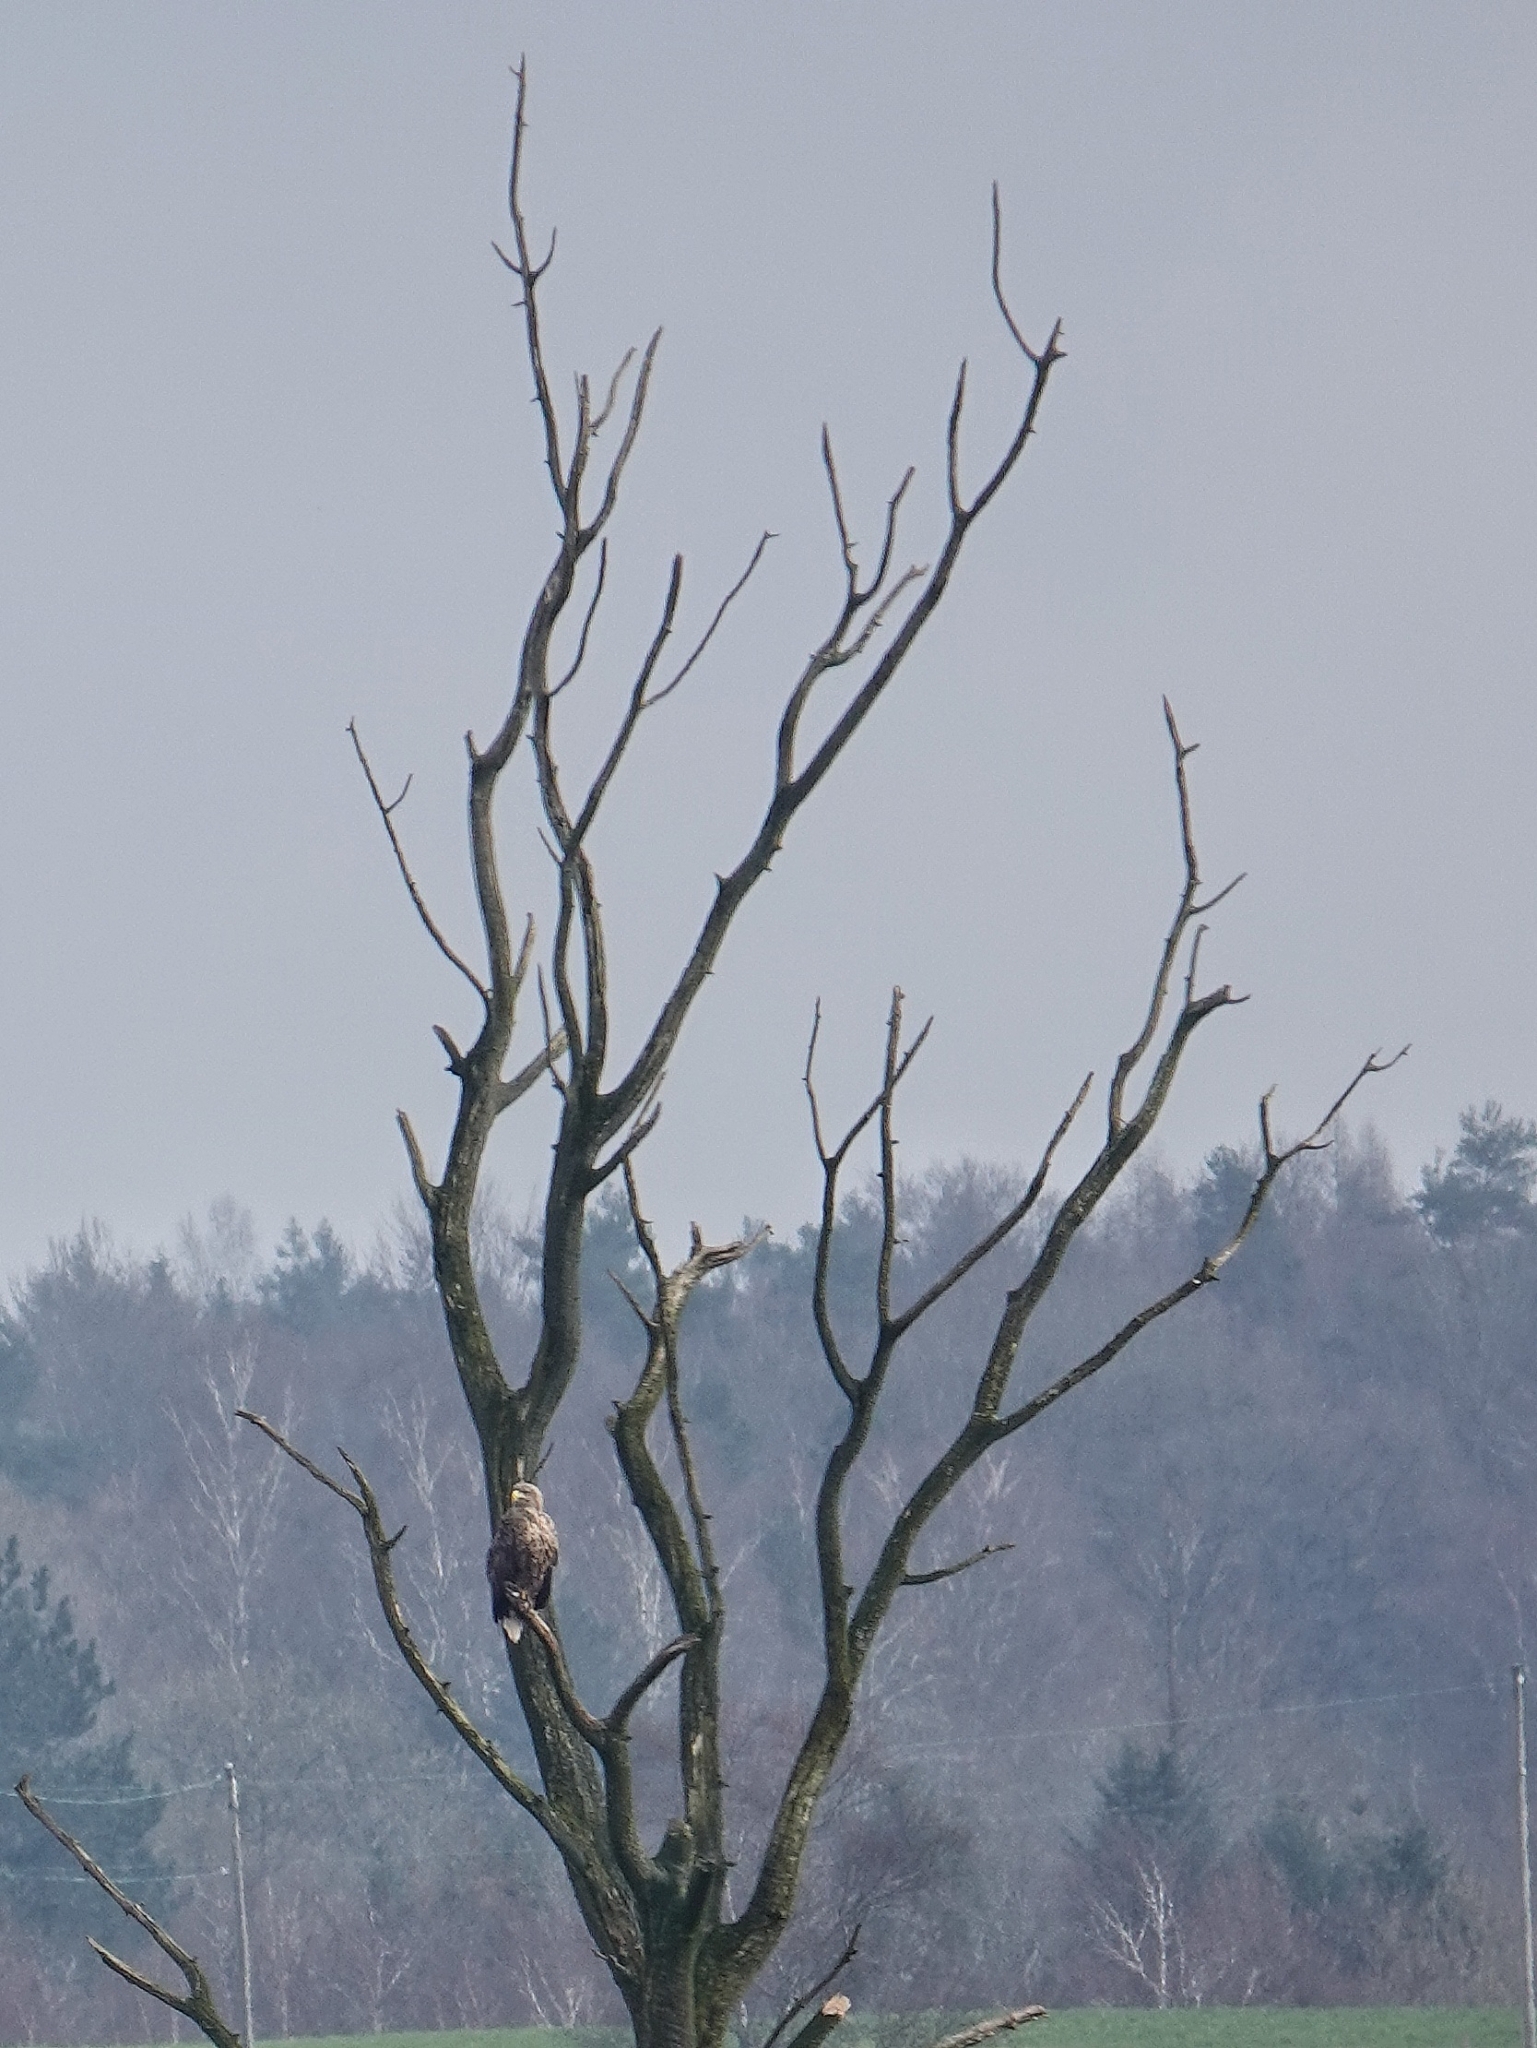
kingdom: Animalia
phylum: Chordata
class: Aves
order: Accipitriformes
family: Accipitridae
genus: Haliaeetus
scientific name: Haliaeetus albicilla
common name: White-tailed eagle
